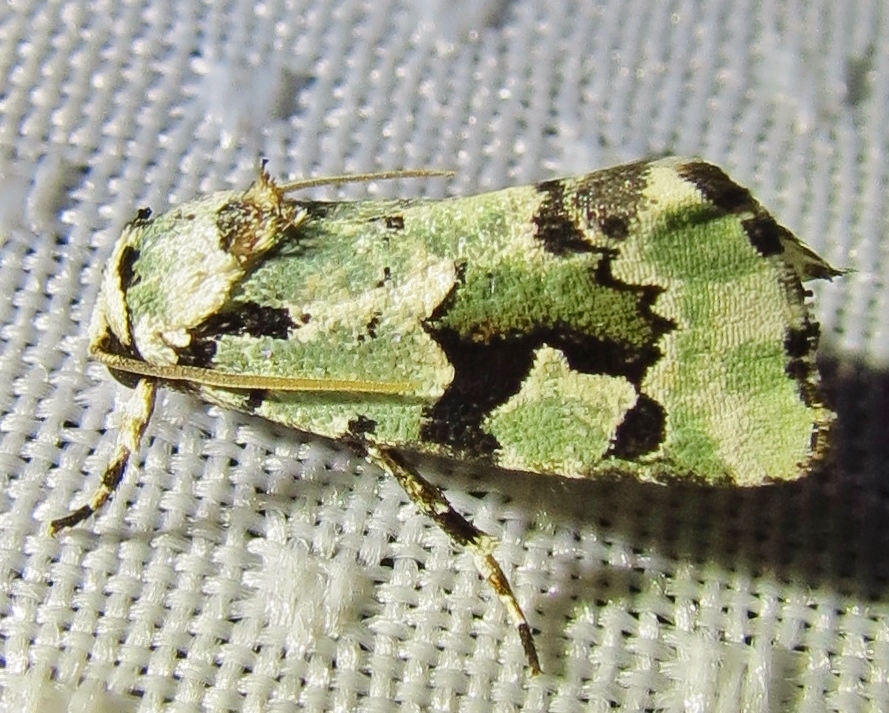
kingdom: Animalia
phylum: Arthropoda
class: Insecta
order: Lepidoptera
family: Noctuidae
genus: Emarginea
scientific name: Emarginea percara
